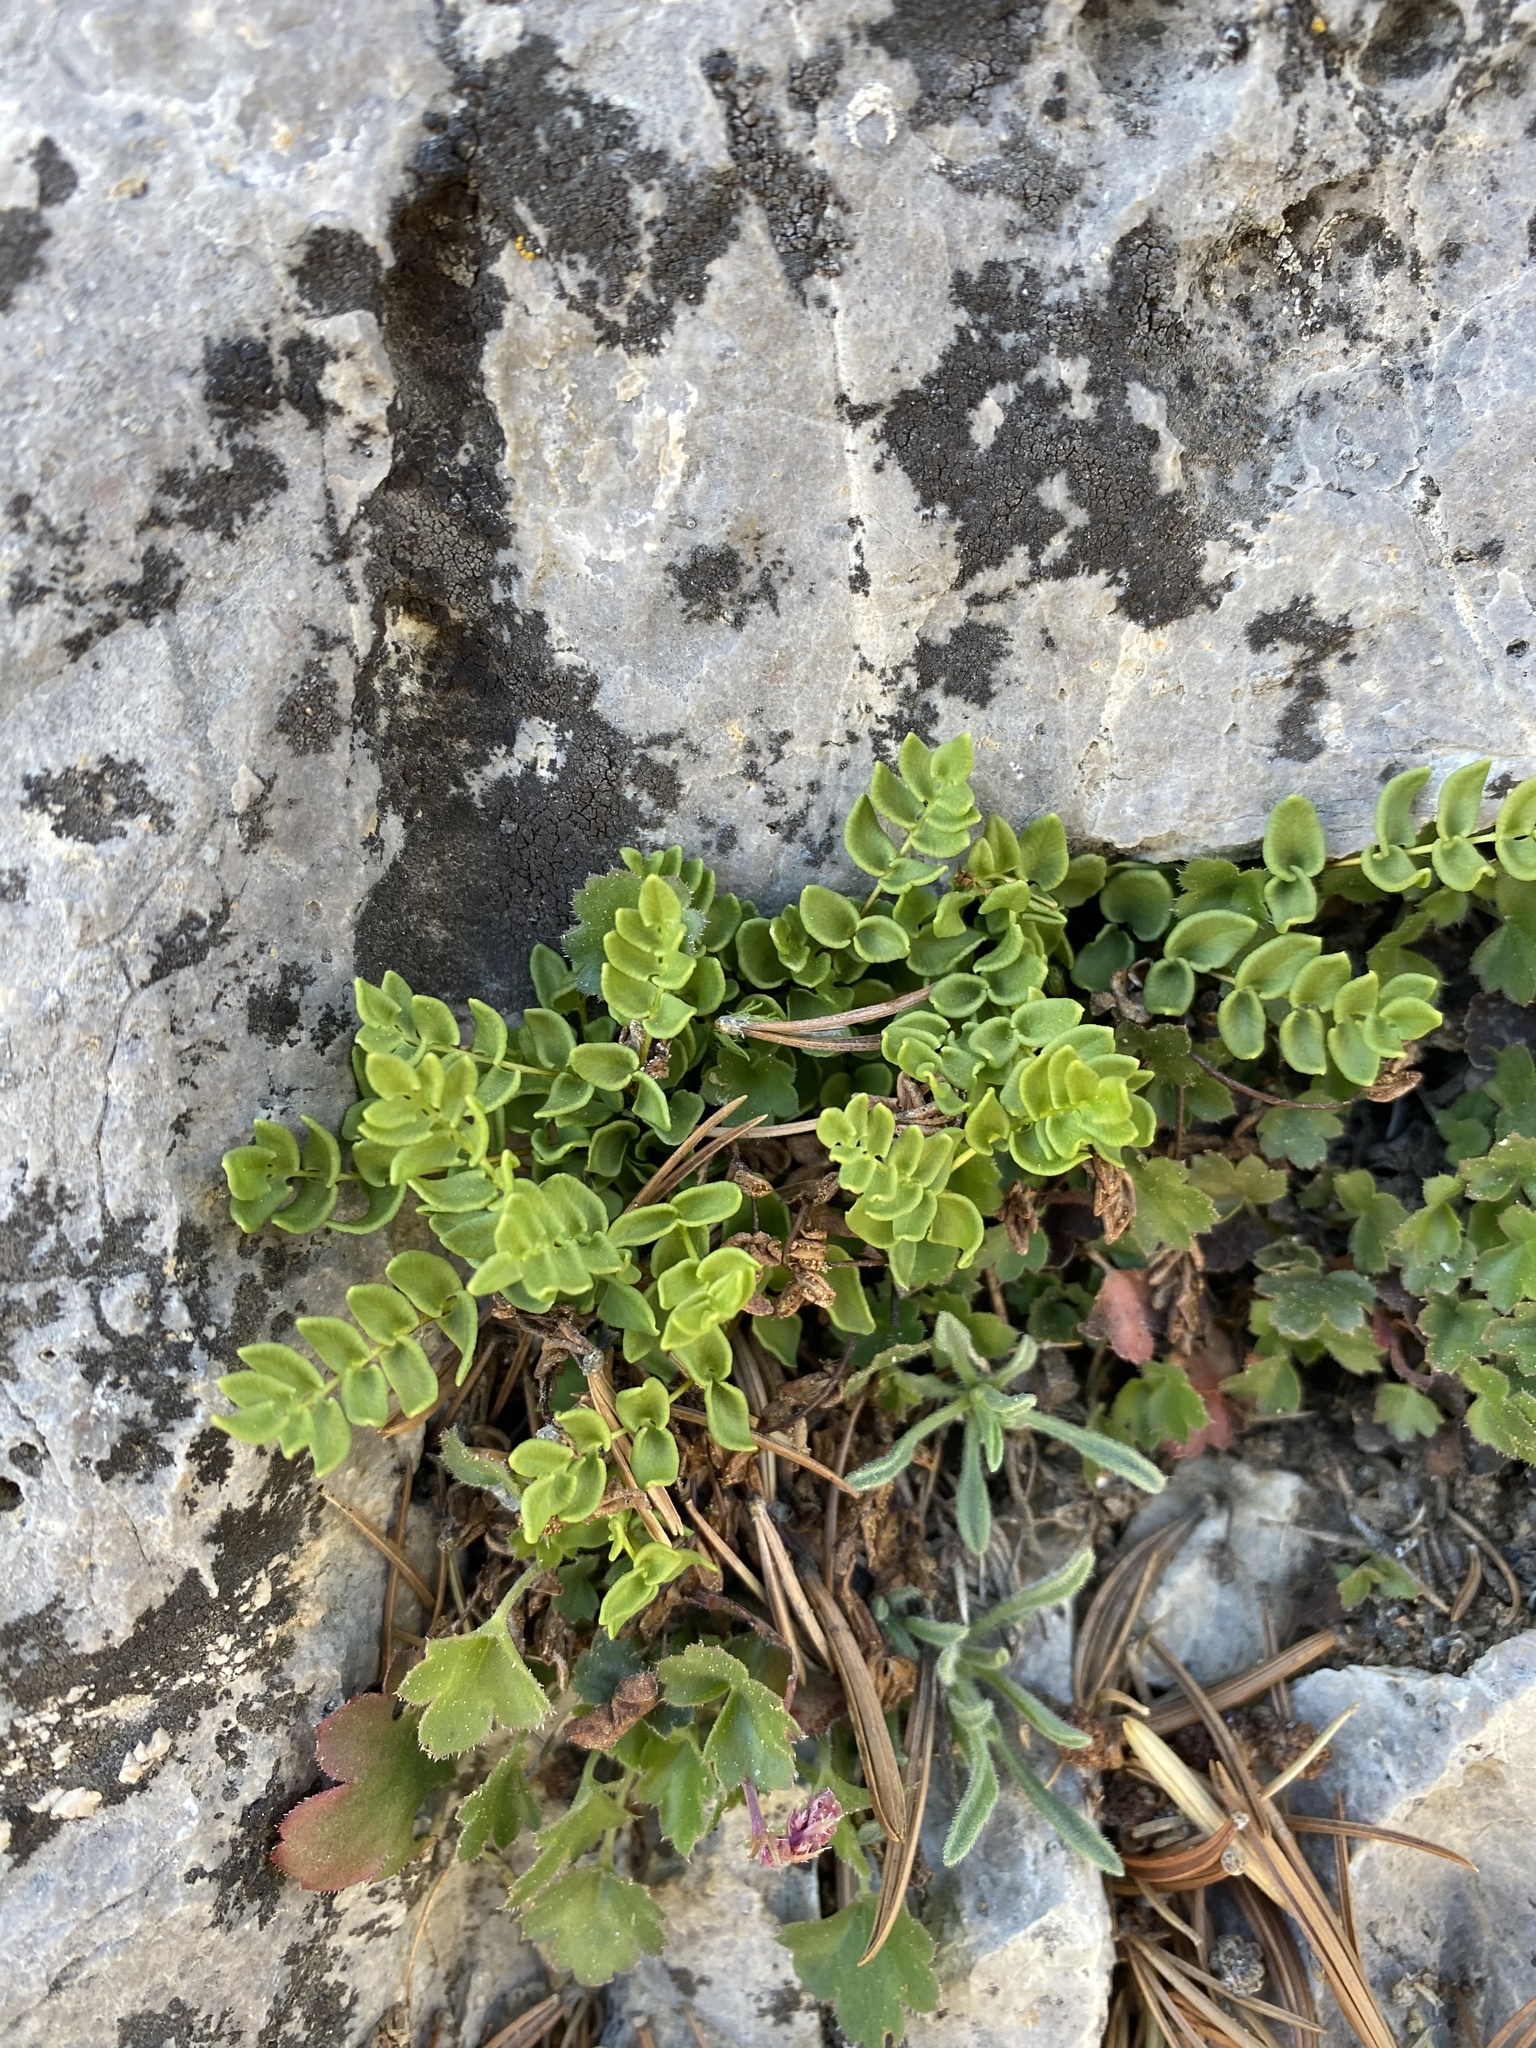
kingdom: Plantae
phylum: Tracheophyta
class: Polypodiopsida
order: Polypodiales
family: Pteridaceae
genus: Pellaea
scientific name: Pellaea breweri
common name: Brewer's cliffbrake
